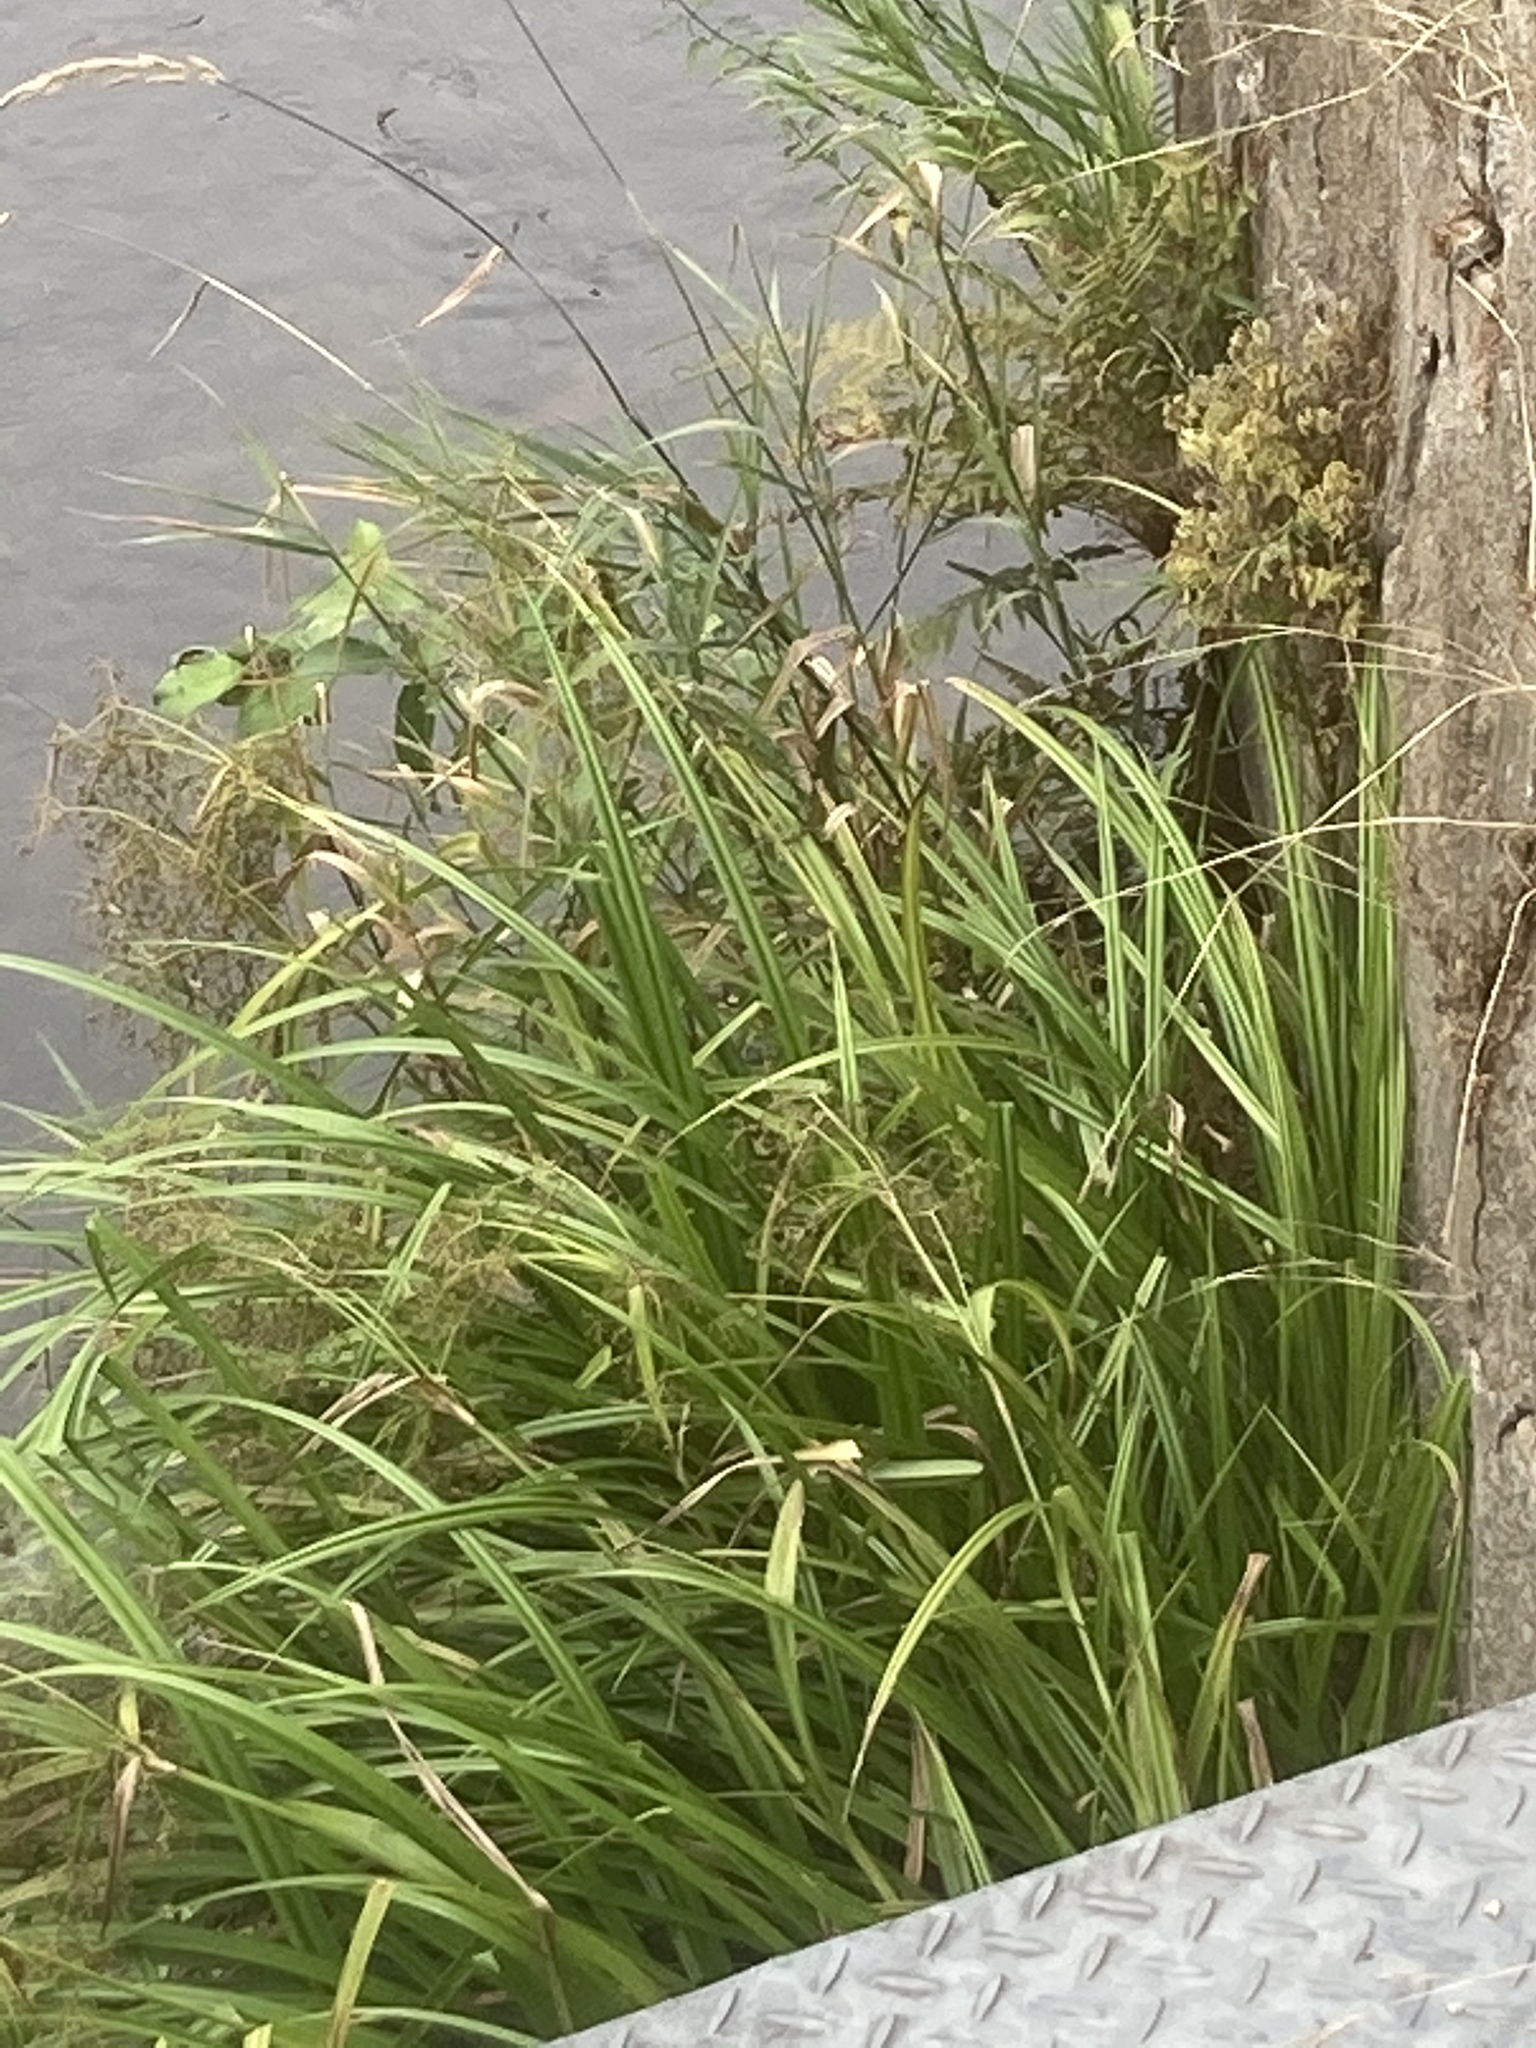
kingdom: Plantae
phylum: Tracheophyta
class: Liliopsida
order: Poales
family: Cyperaceae
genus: Scirpus
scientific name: Scirpus sylvaticus
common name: Wood club-rush
